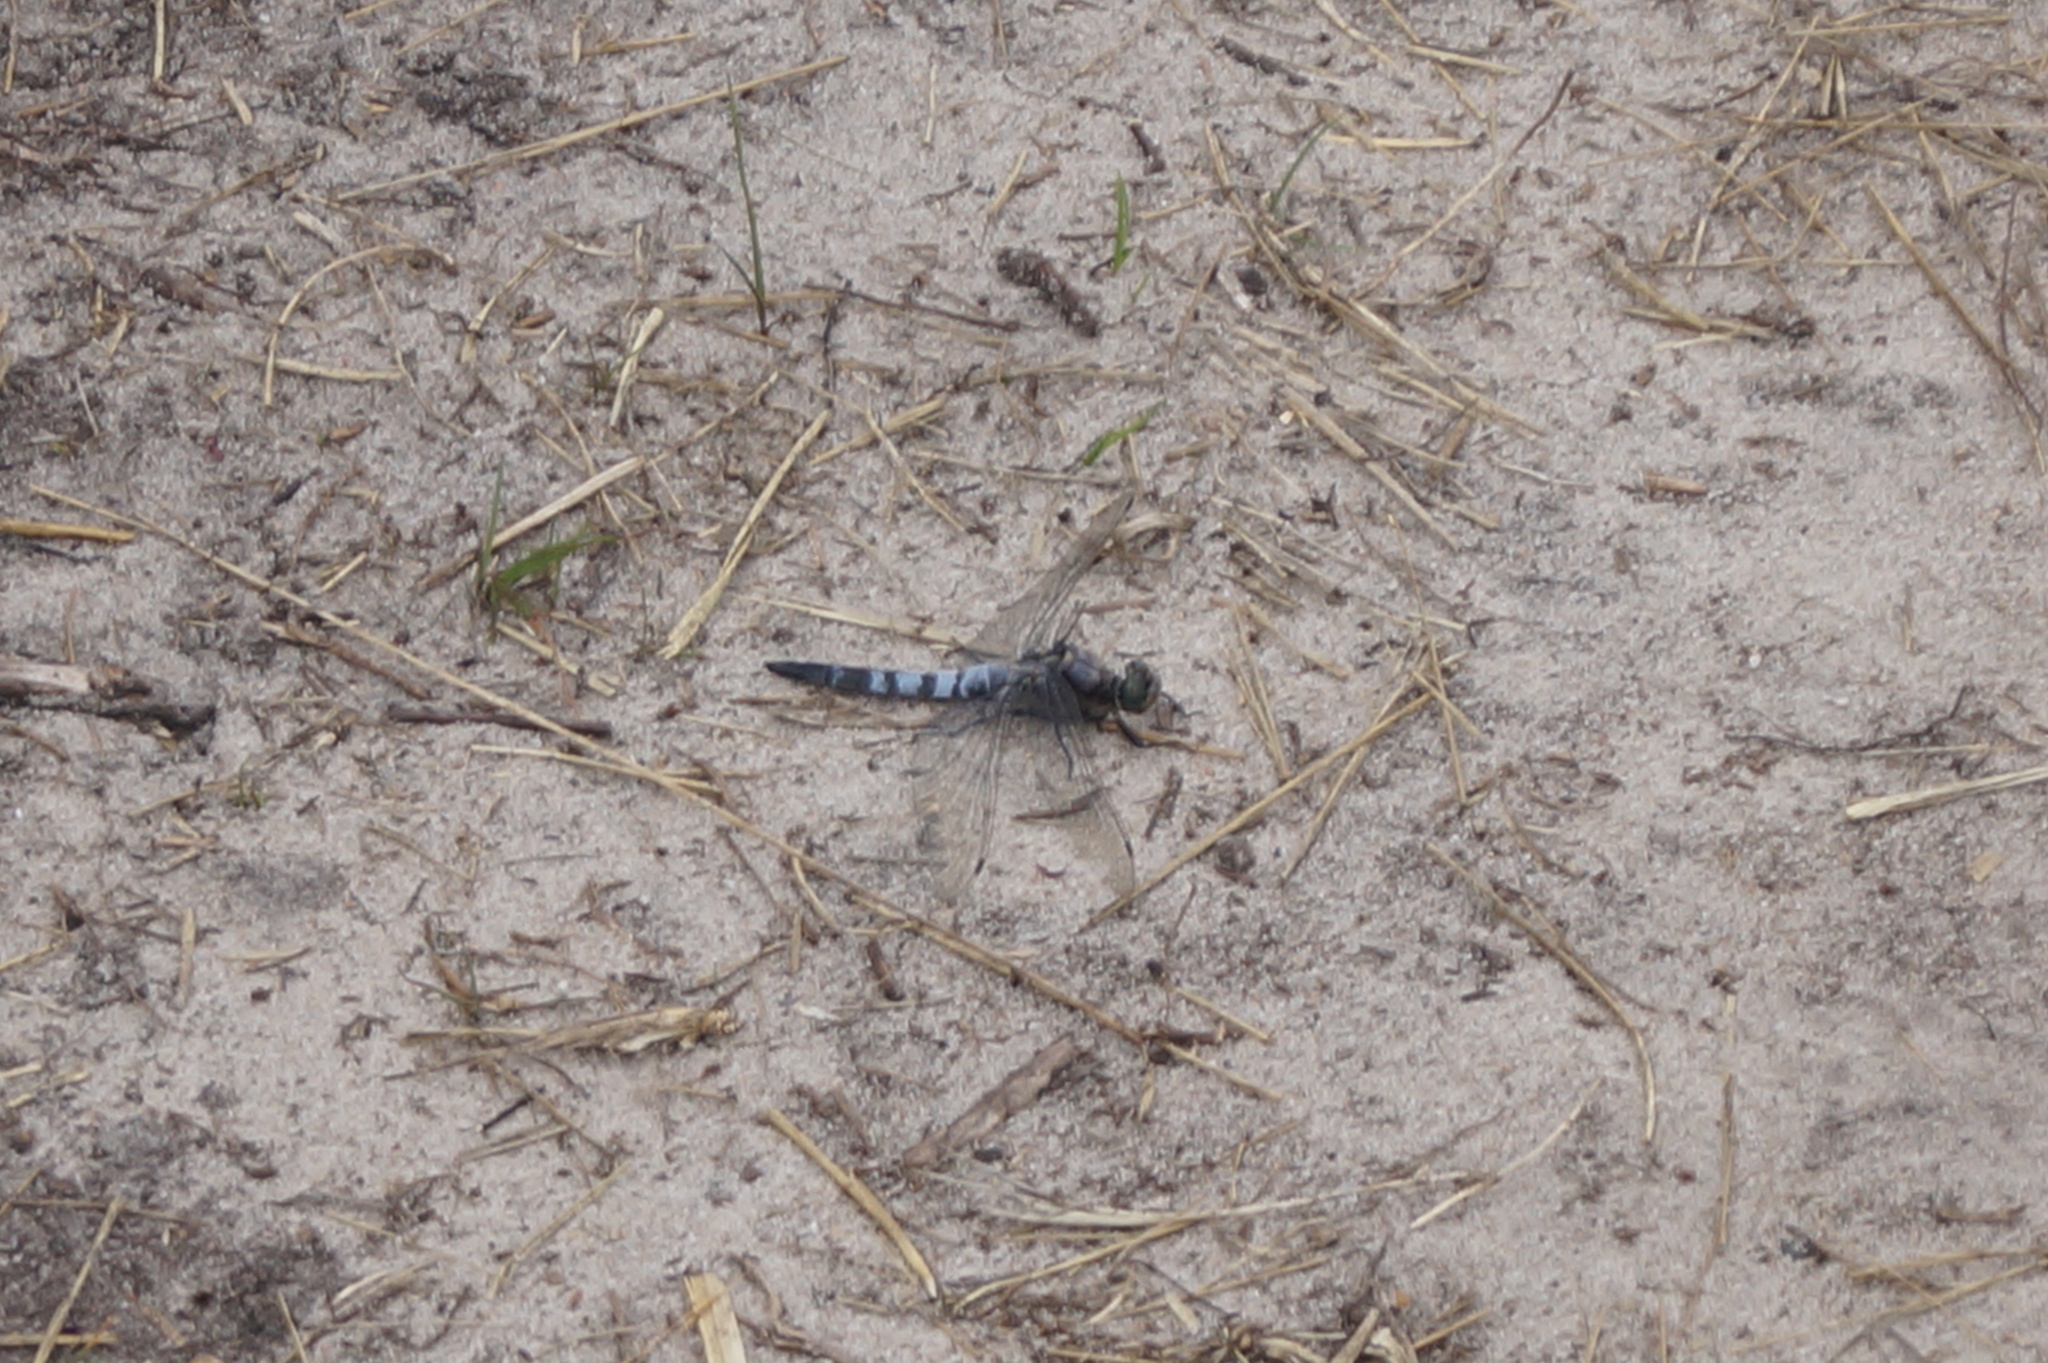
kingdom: Animalia
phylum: Arthropoda
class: Insecta
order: Odonata
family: Libellulidae
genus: Orthetrum
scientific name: Orthetrum cancellatum
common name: Black-tailed skimmer
